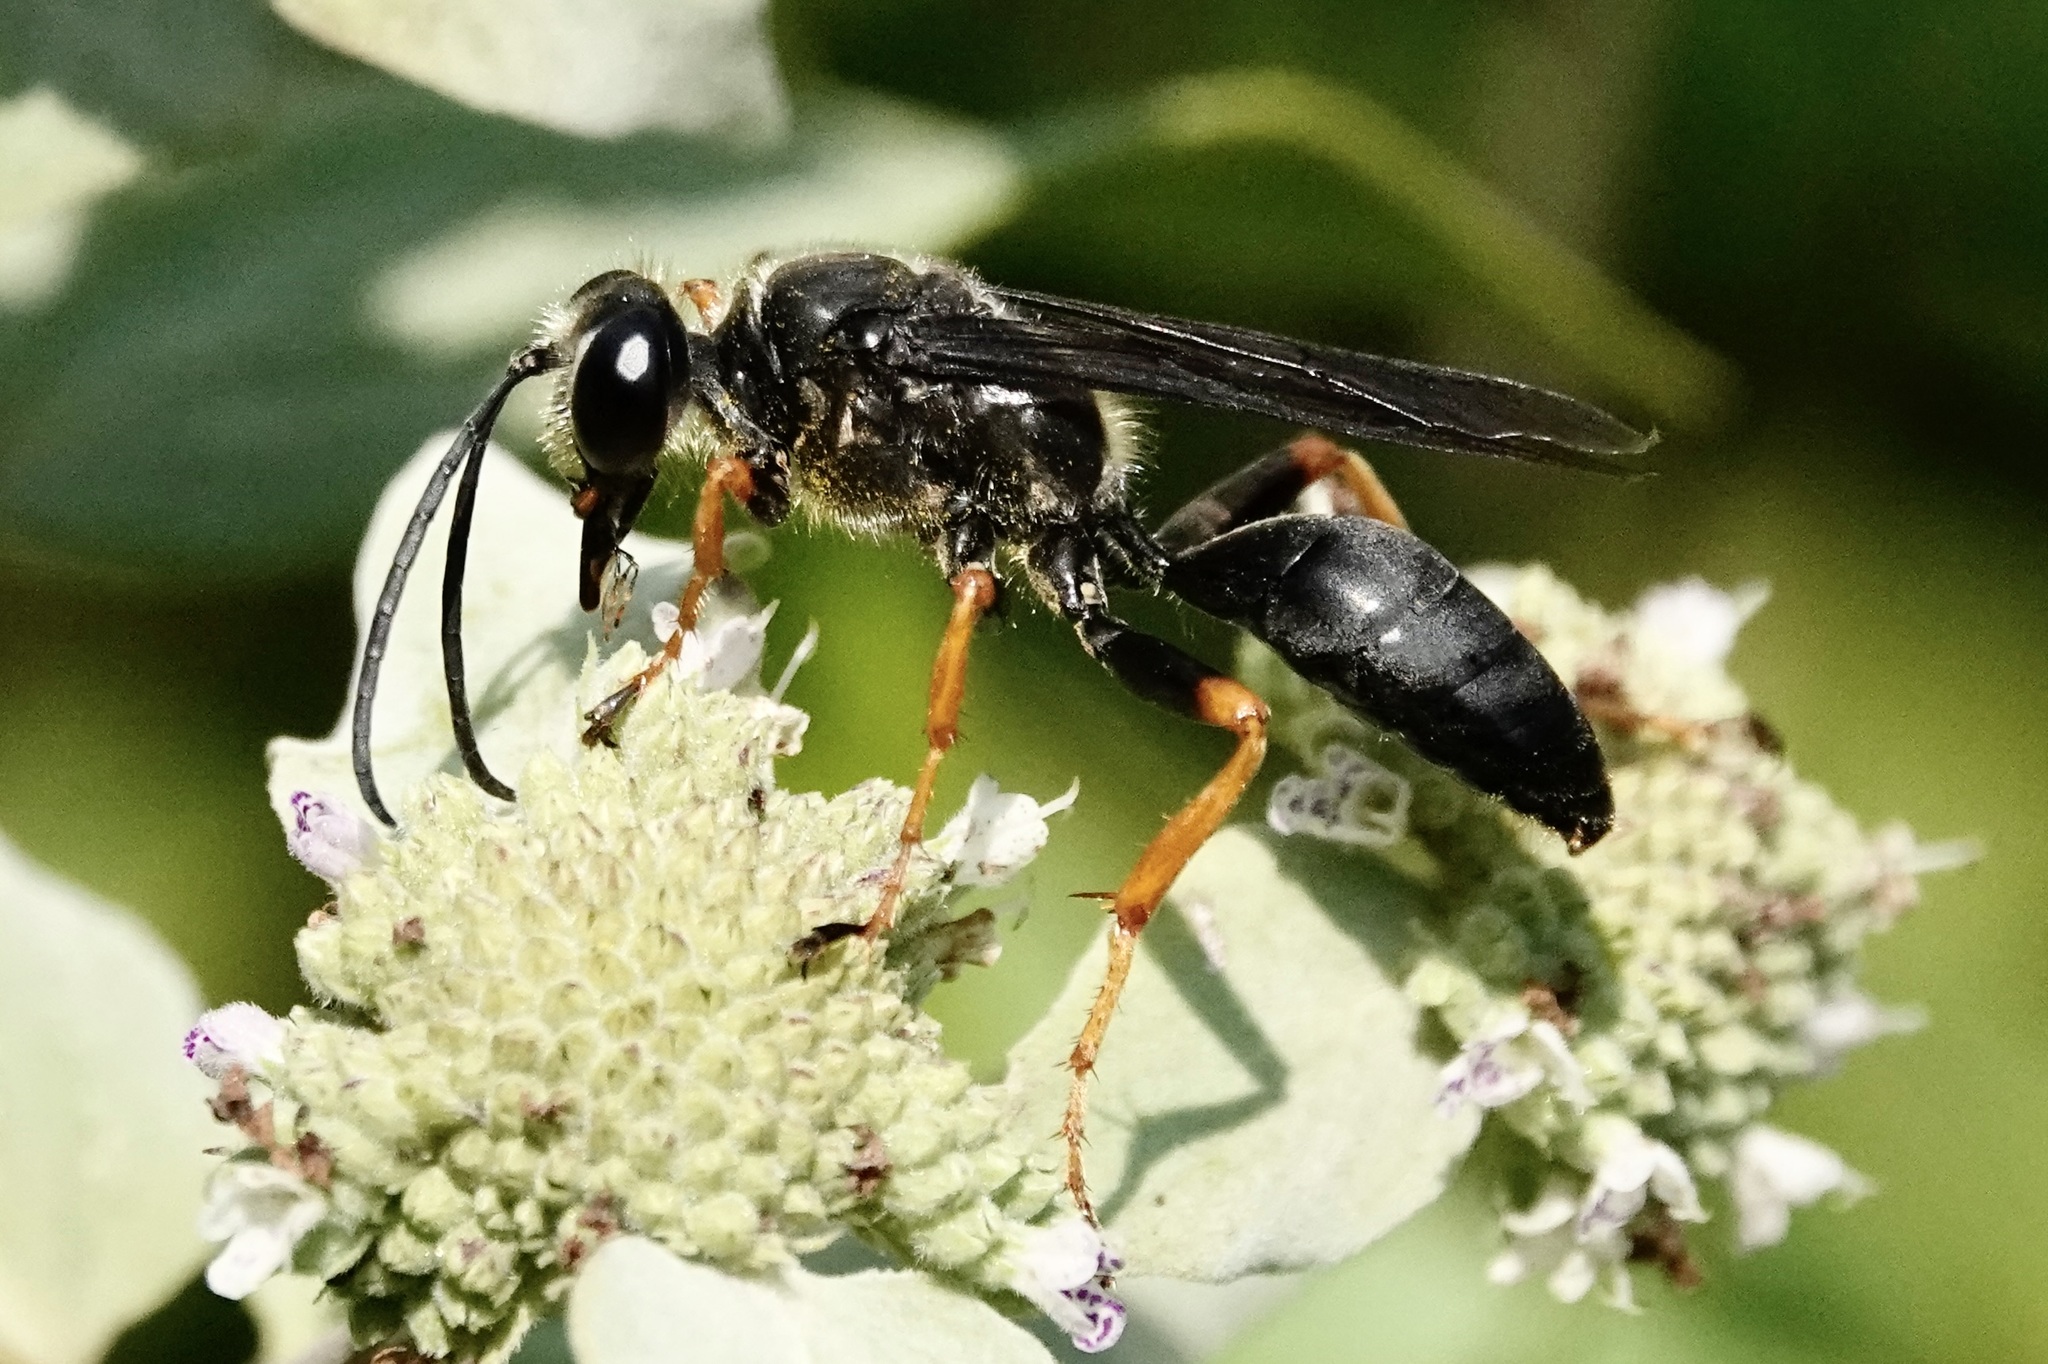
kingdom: Animalia
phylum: Arthropoda
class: Insecta
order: Hymenoptera
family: Sphecidae
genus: Sphex
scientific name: Sphex nudus
